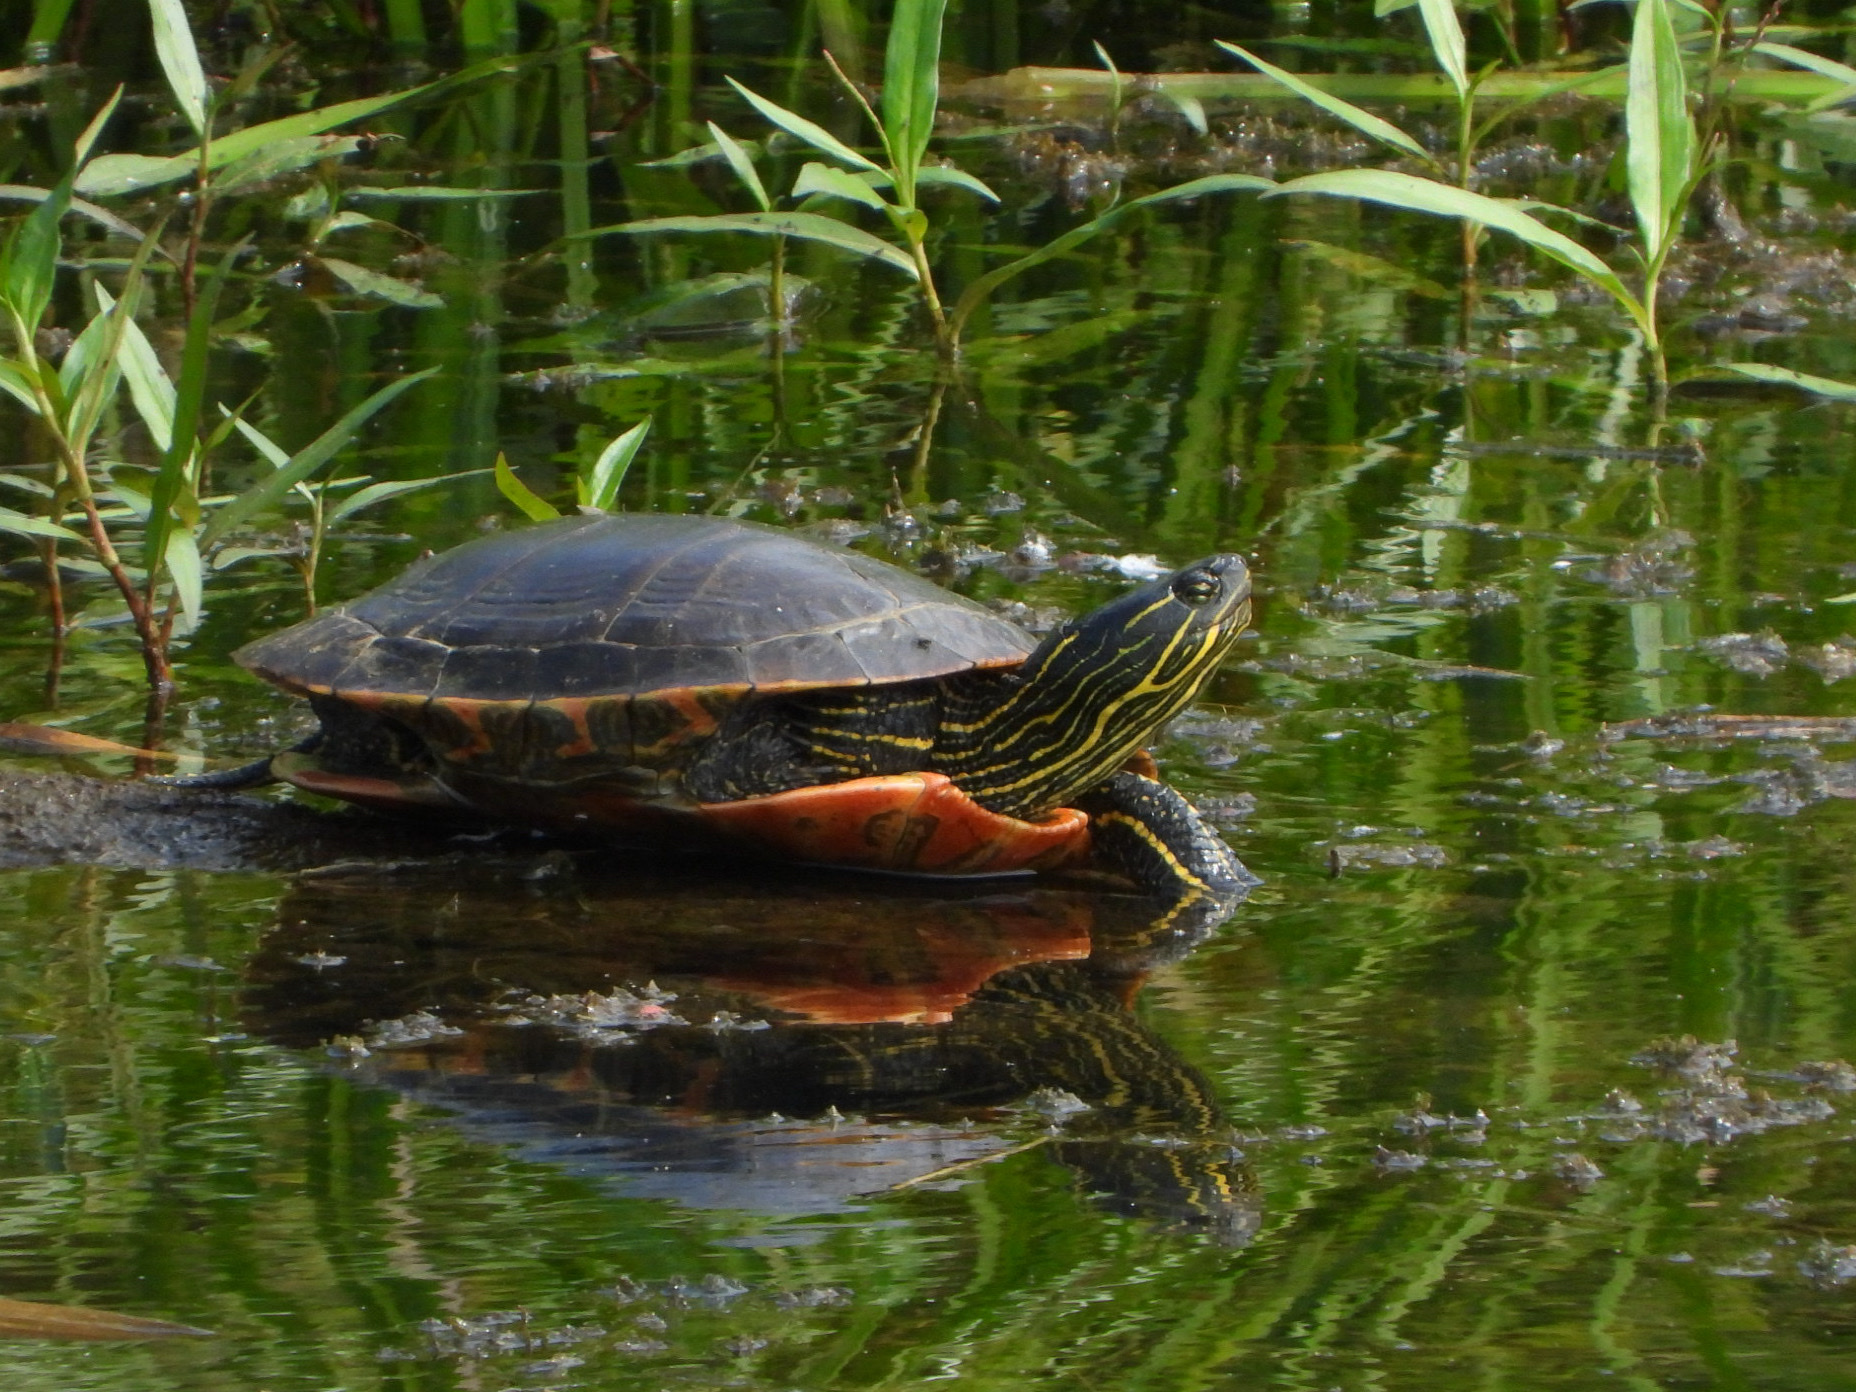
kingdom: Animalia
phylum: Chordata
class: Testudines
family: Emydidae
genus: Chrysemys
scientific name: Chrysemys picta
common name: Painted turtle
